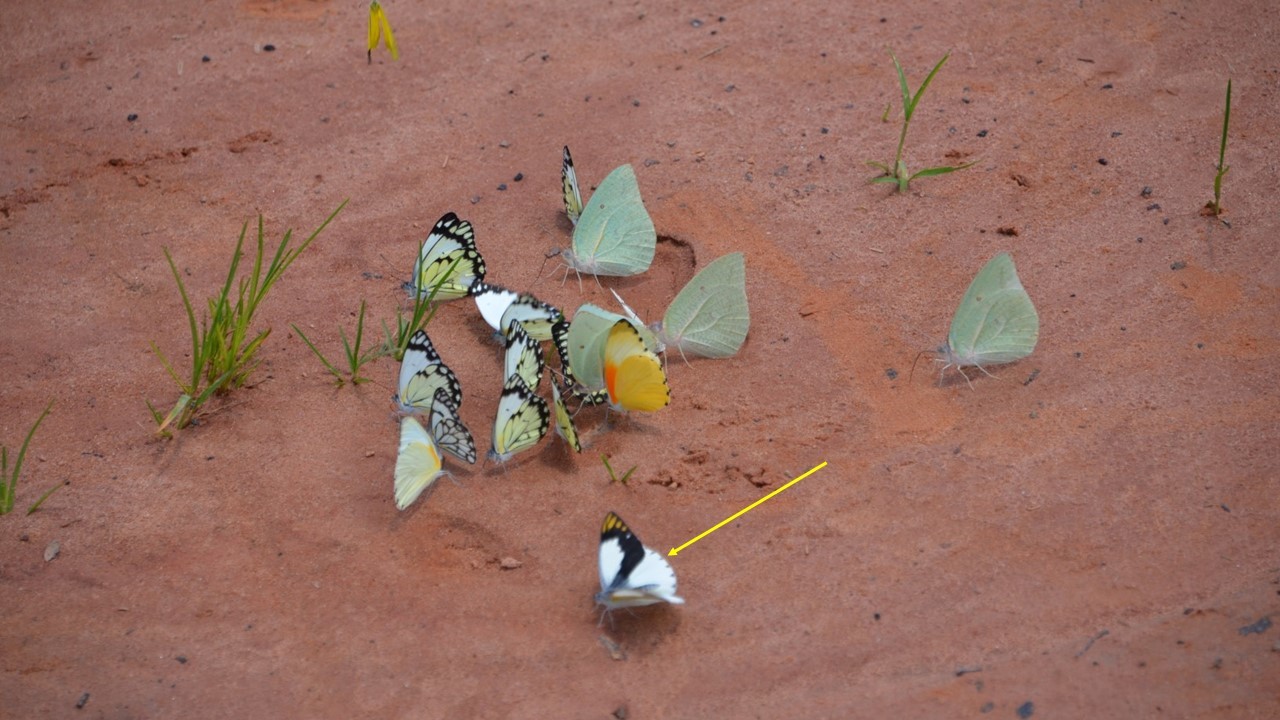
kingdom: Animalia
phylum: Arthropoda
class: Insecta
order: Lepidoptera
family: Pieridae
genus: Colotis
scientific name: Colotis eris
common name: Banded gold tip
